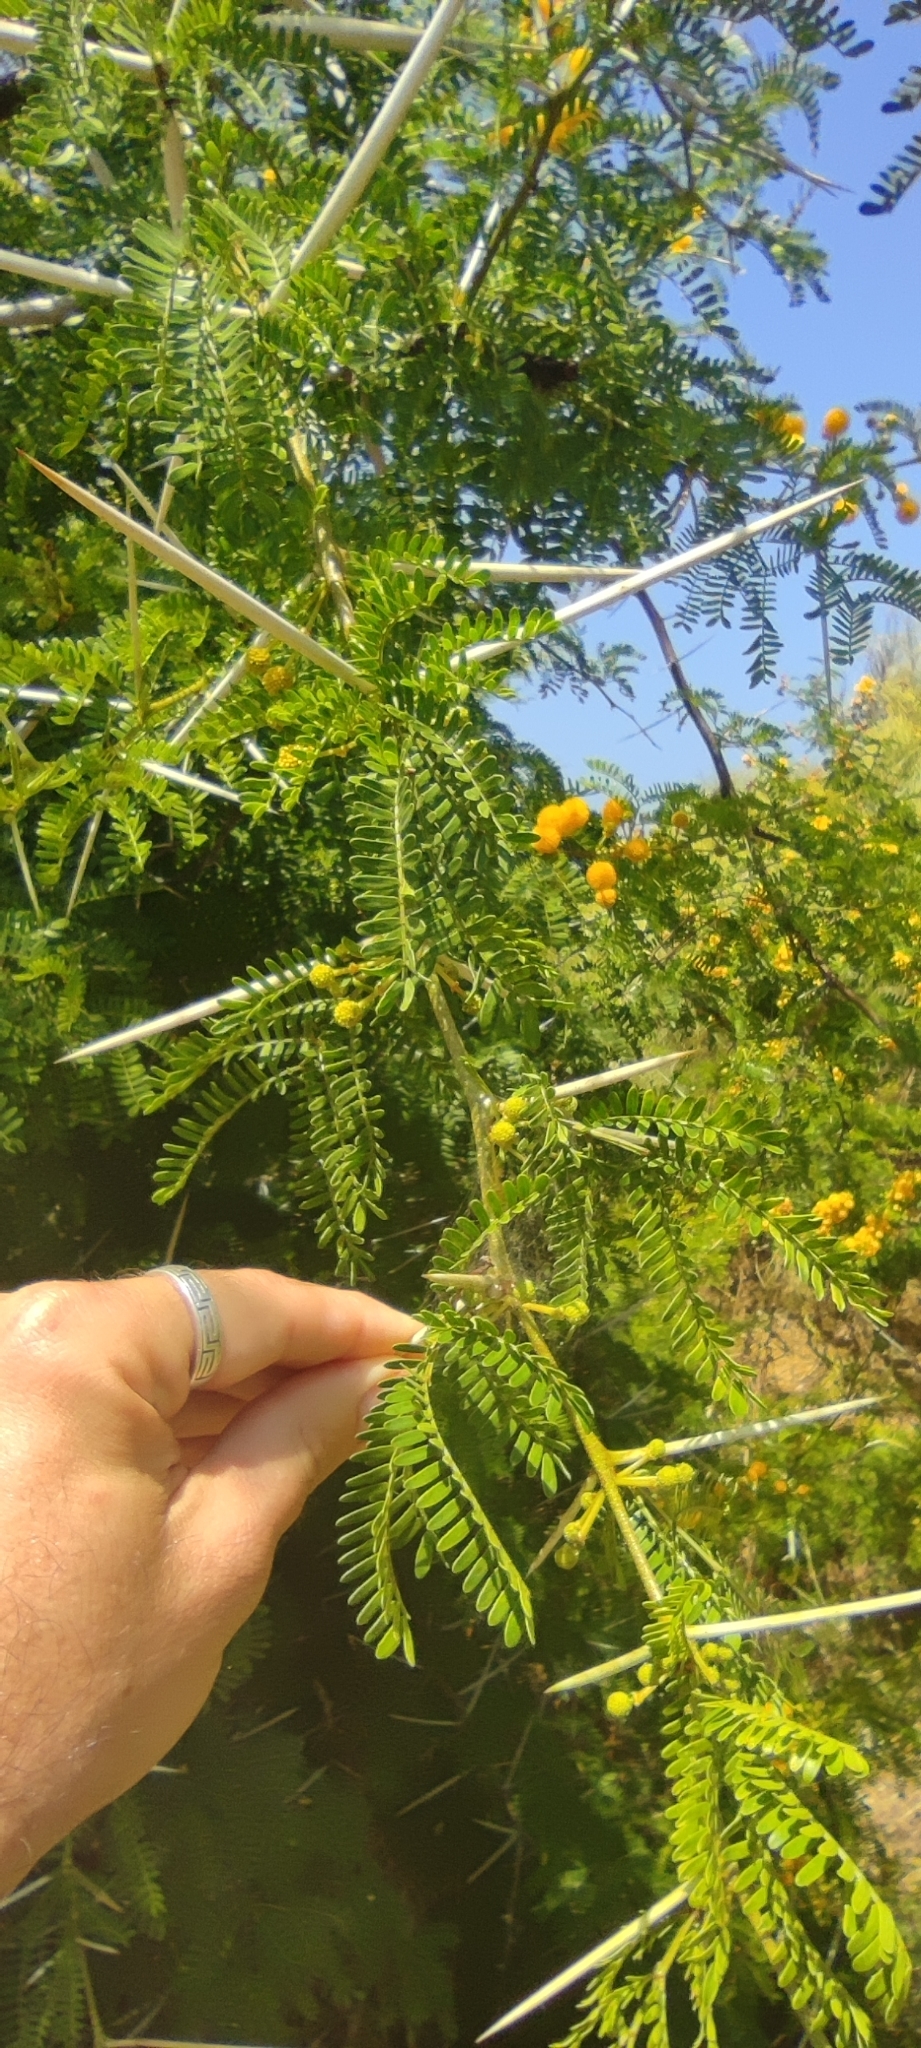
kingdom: Plantae
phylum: Tracheophyta
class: Magnoliopsida
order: Fabales
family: Fabaceae
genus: Vachellia
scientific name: Vachellia karroo
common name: Sweet thorn
